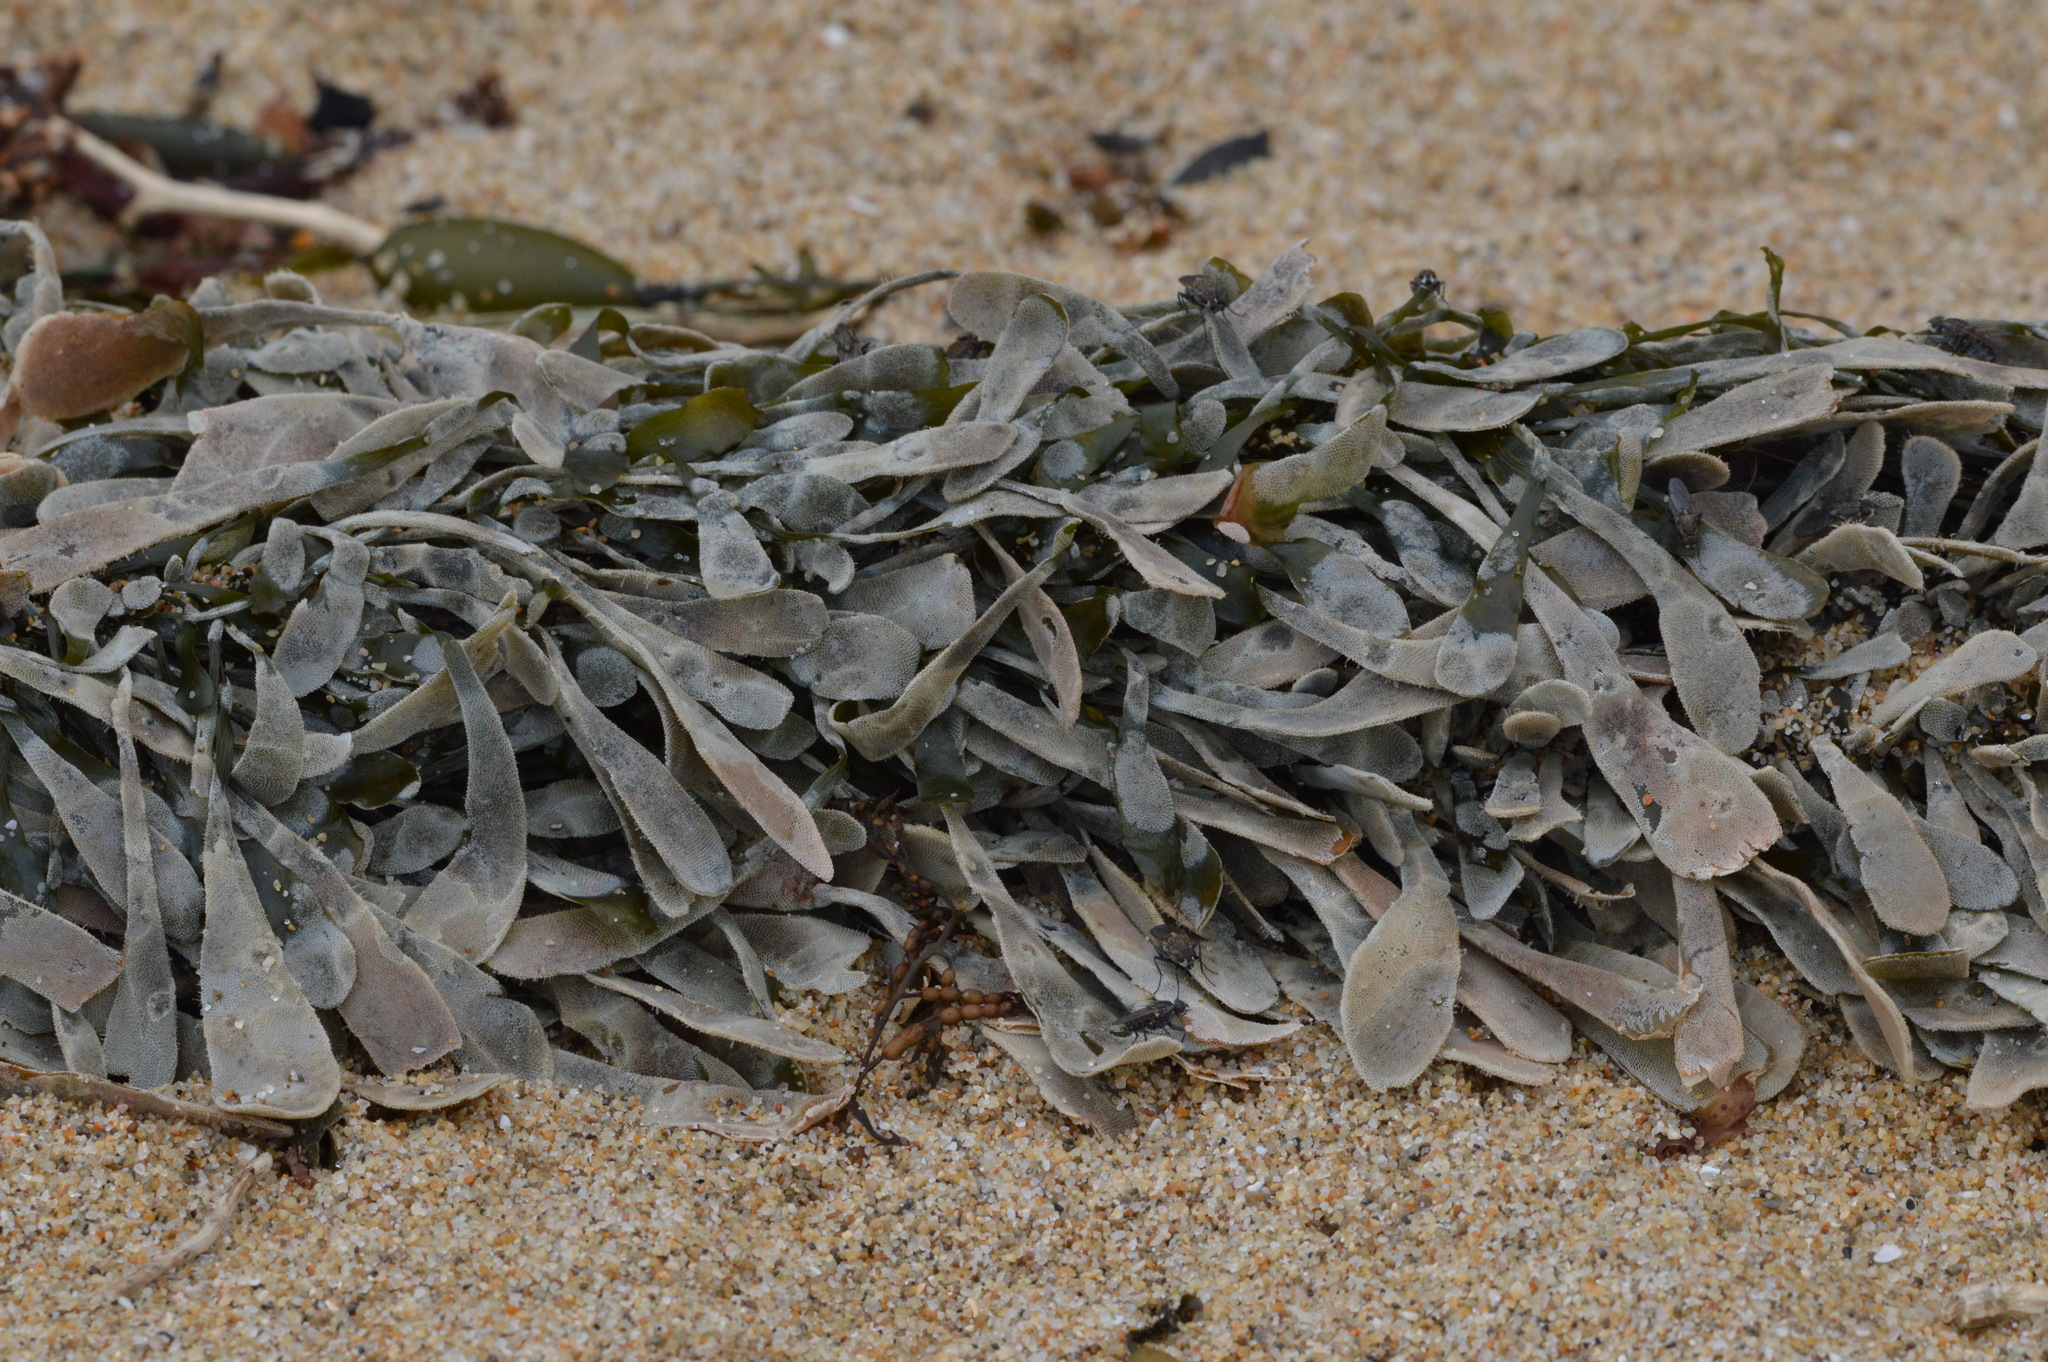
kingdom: Chromista
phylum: Ochrophyta
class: Phaeophyceae
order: Laminariales
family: Lessoniaceae
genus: Egregia
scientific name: Egregia menziesii
